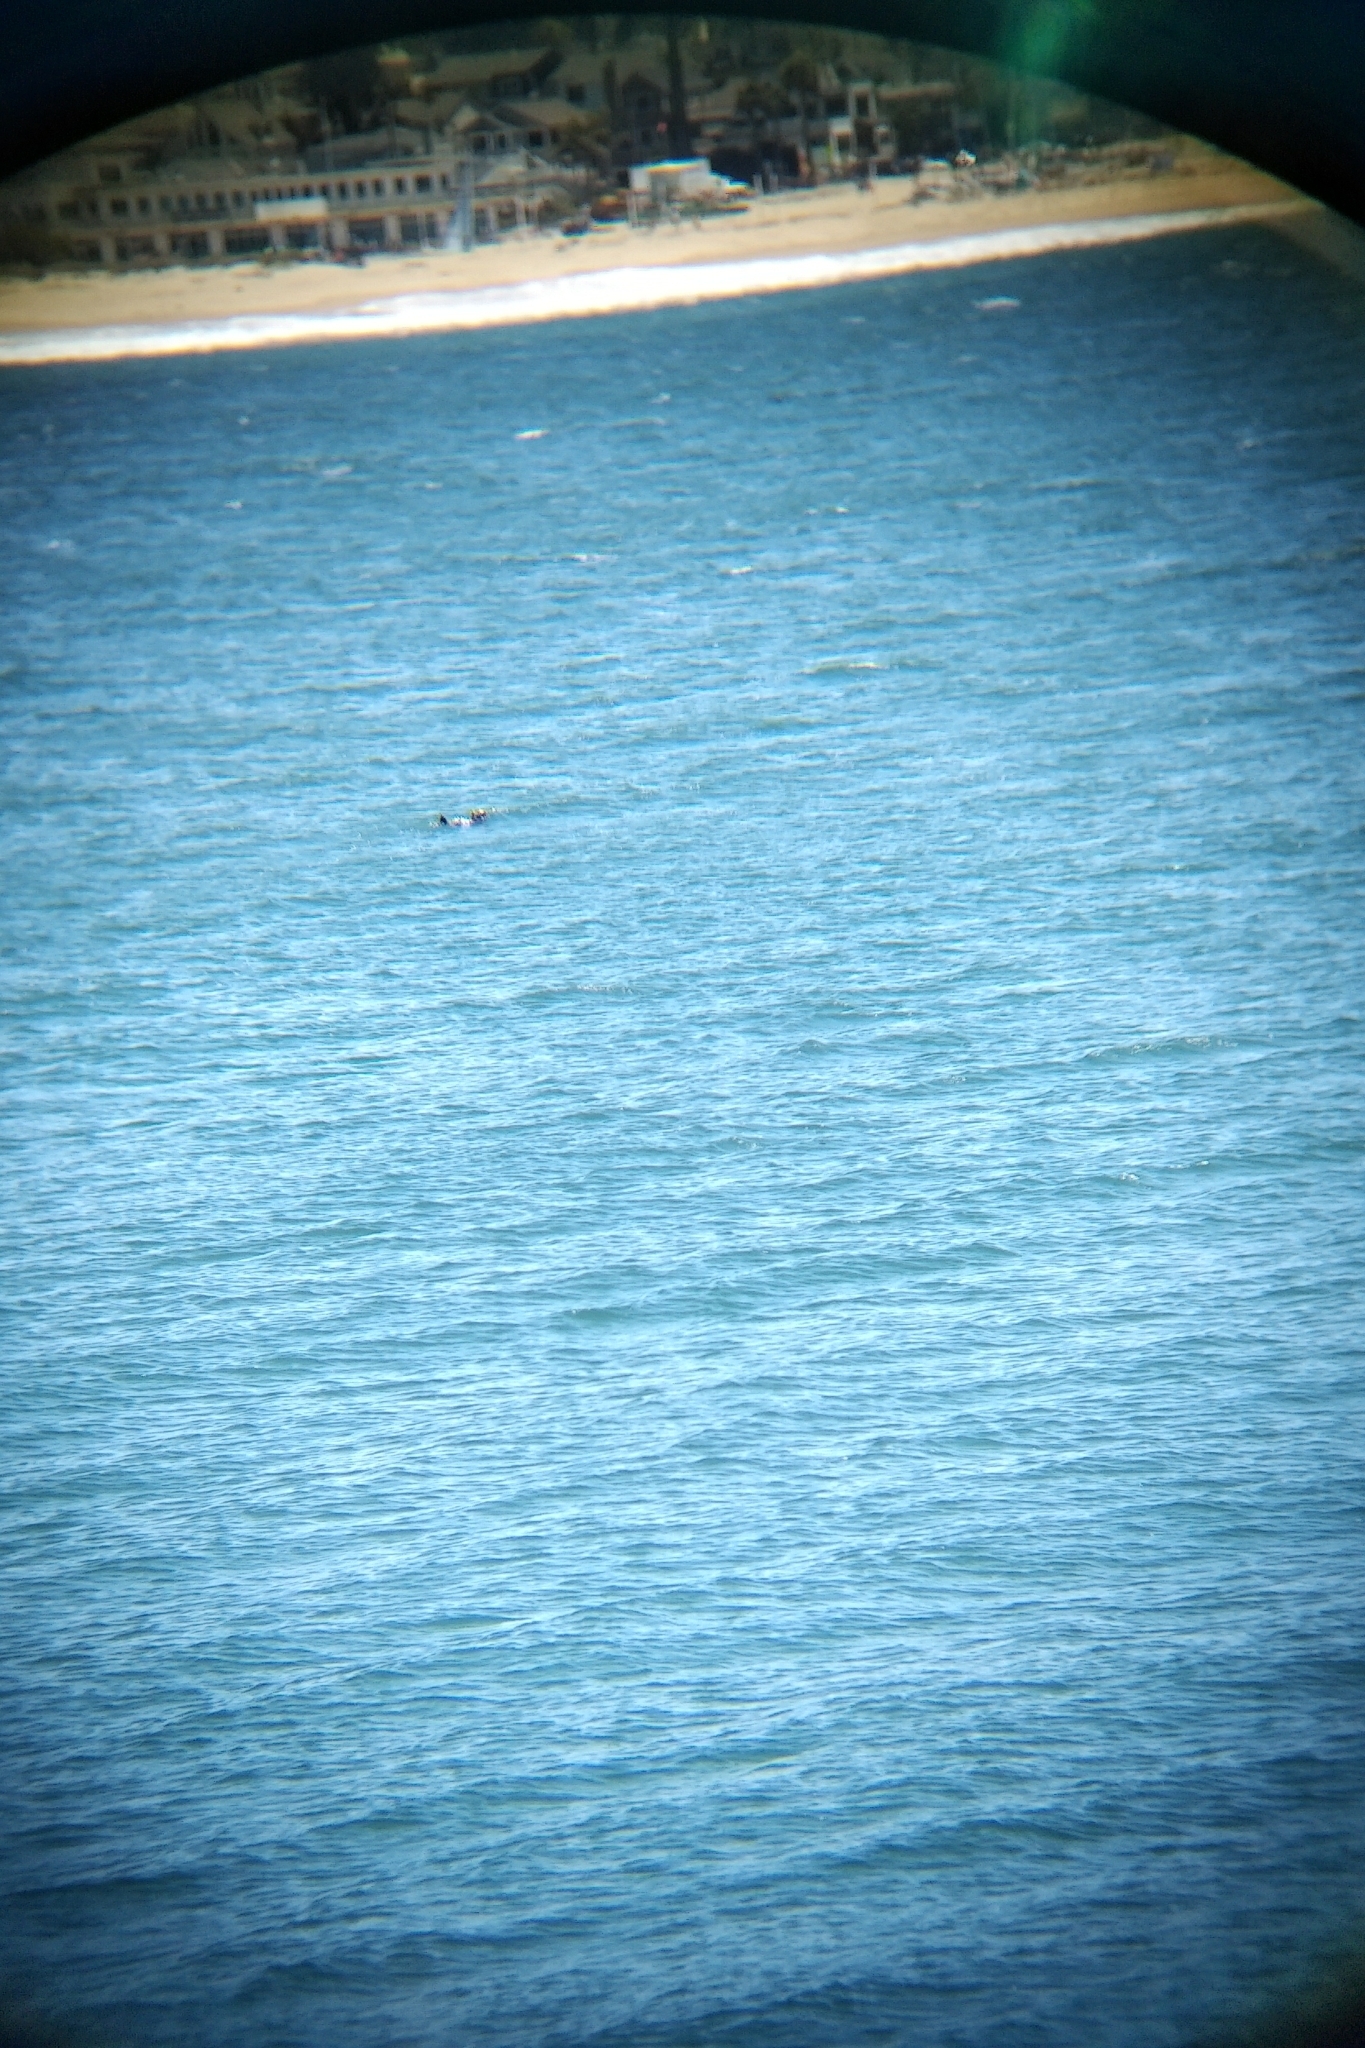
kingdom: Animalia
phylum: Chordata
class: Mammalia
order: Carnivora
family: Mustelidae
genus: Enhydra
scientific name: Enhydra lutris
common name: Sea otter
